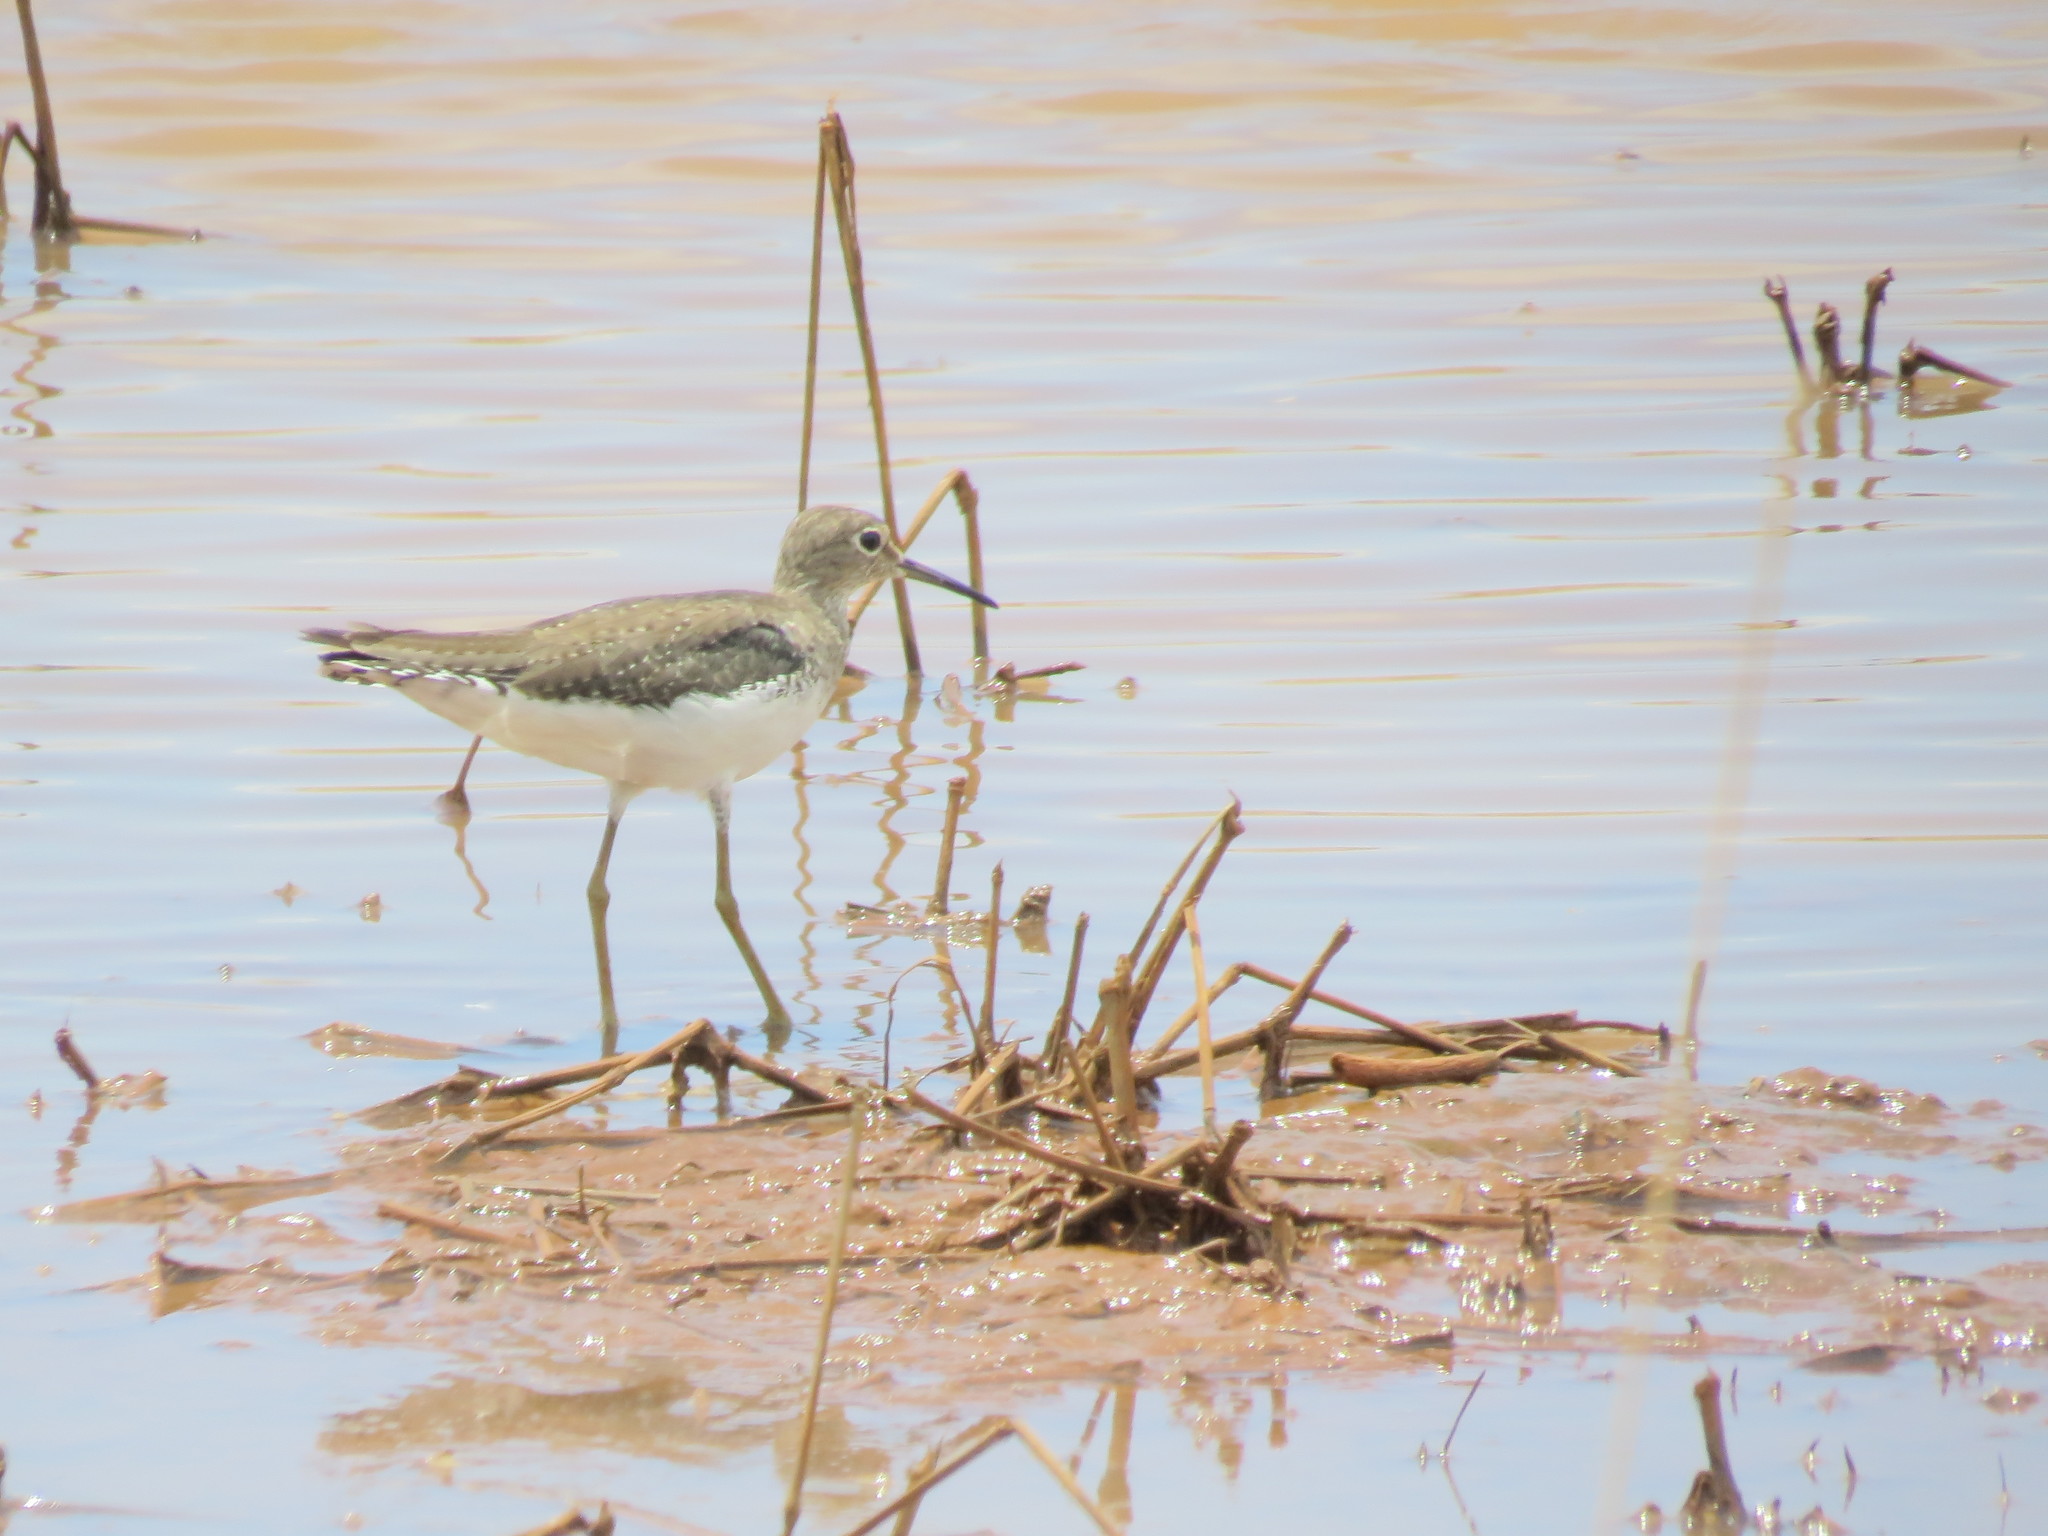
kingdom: Animalia
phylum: Chordata
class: Aves
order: Charadriiformes
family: Scolopacidae
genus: Tringa
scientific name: Tringa solitaria
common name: Solitary sandpiper
